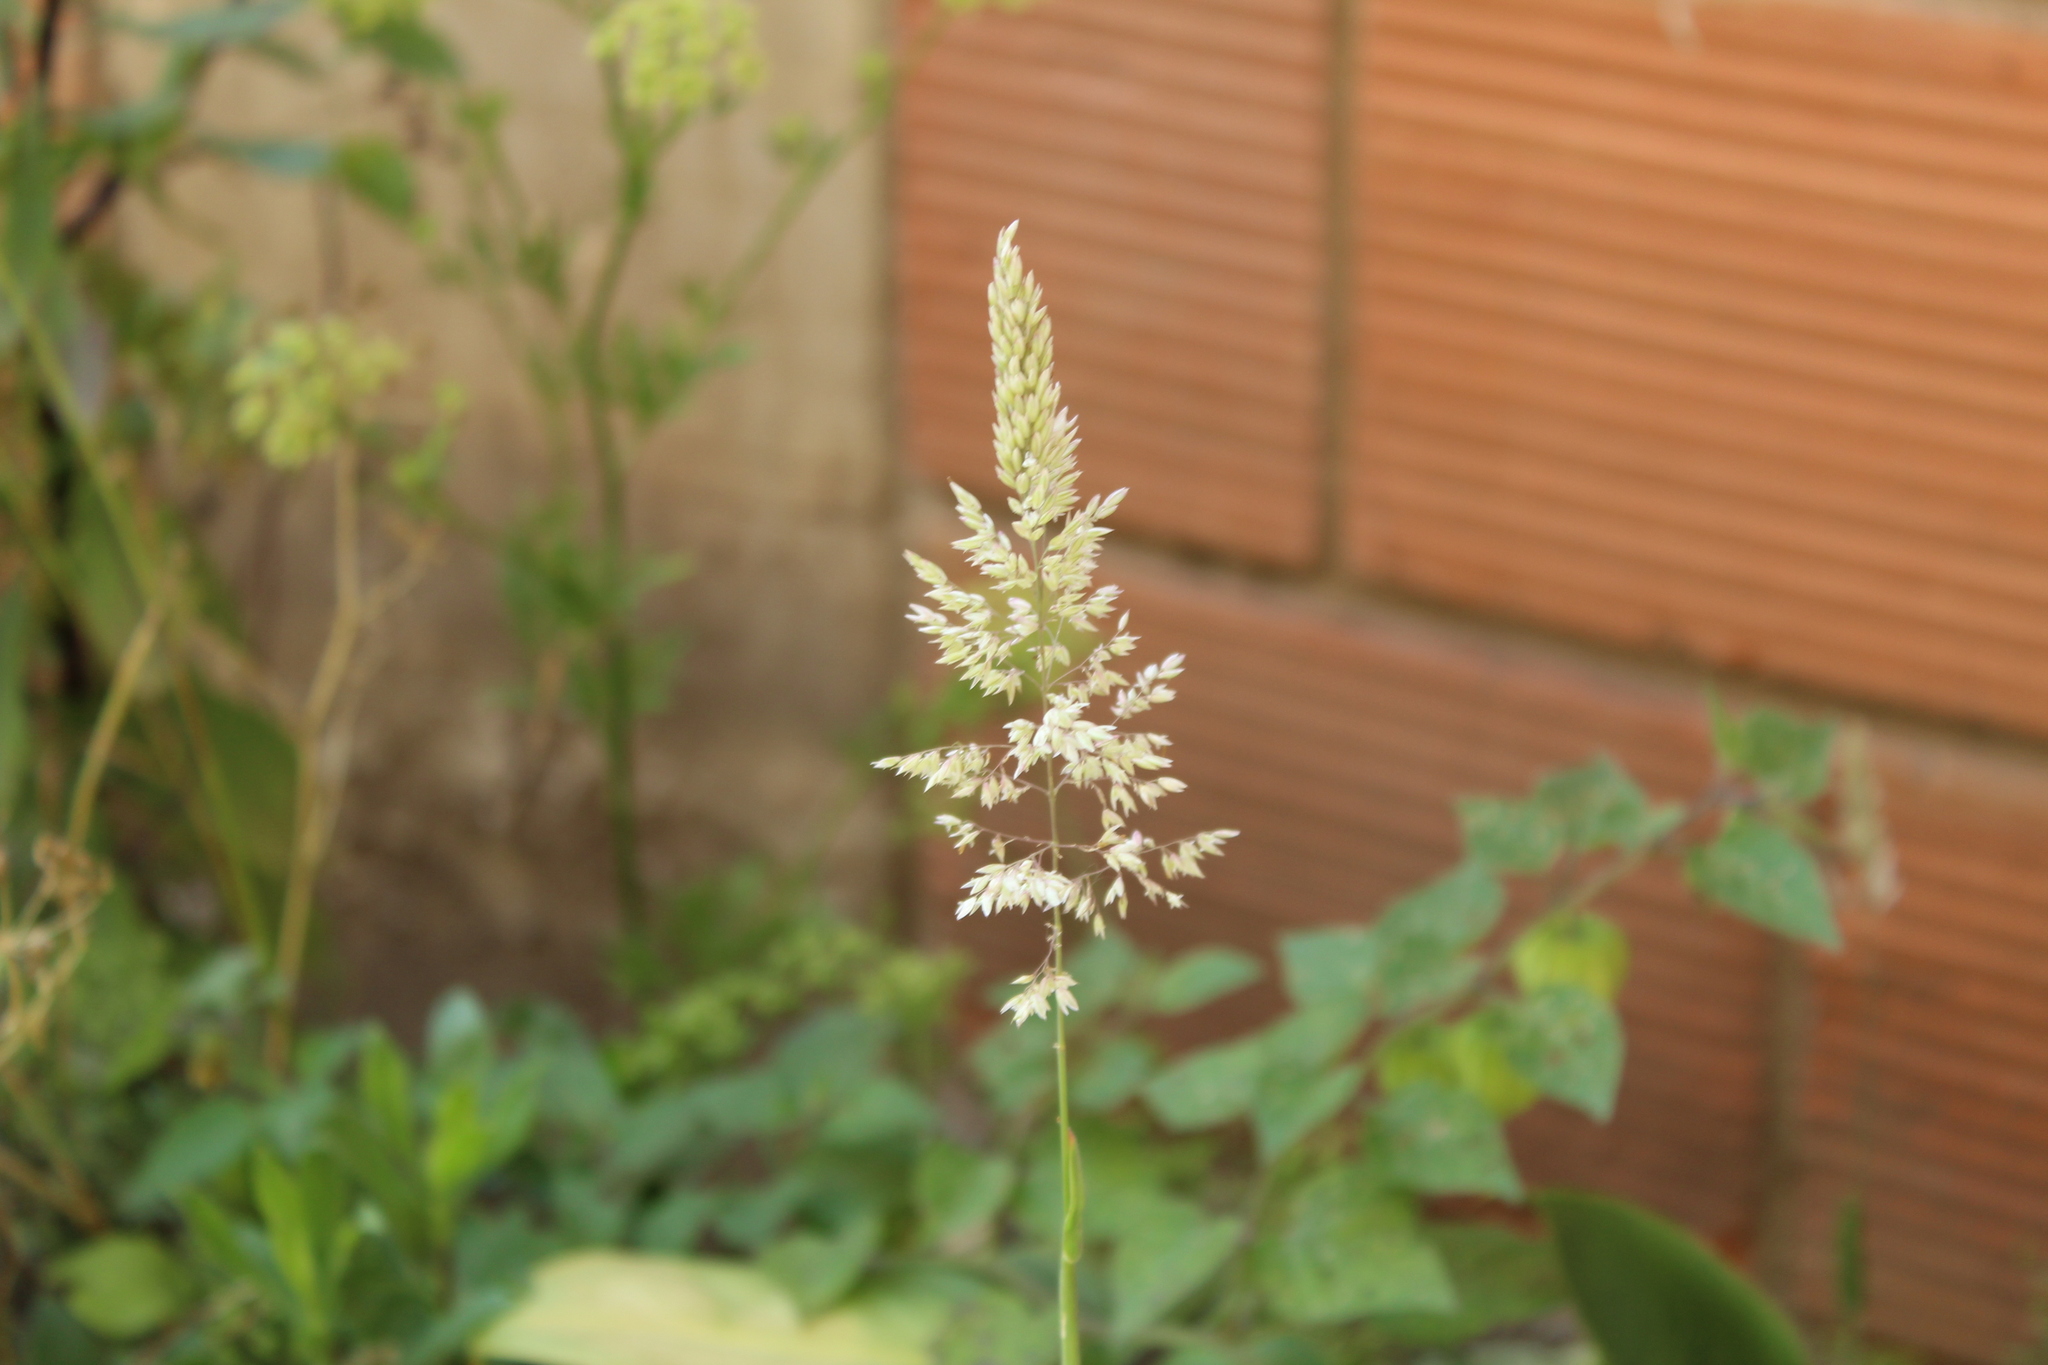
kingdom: Plantae
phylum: Tracheophyta
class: Liliopsida
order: Poales
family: Poaceae
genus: Holcus
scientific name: Holcus lanatus
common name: Yorkshire-fog
